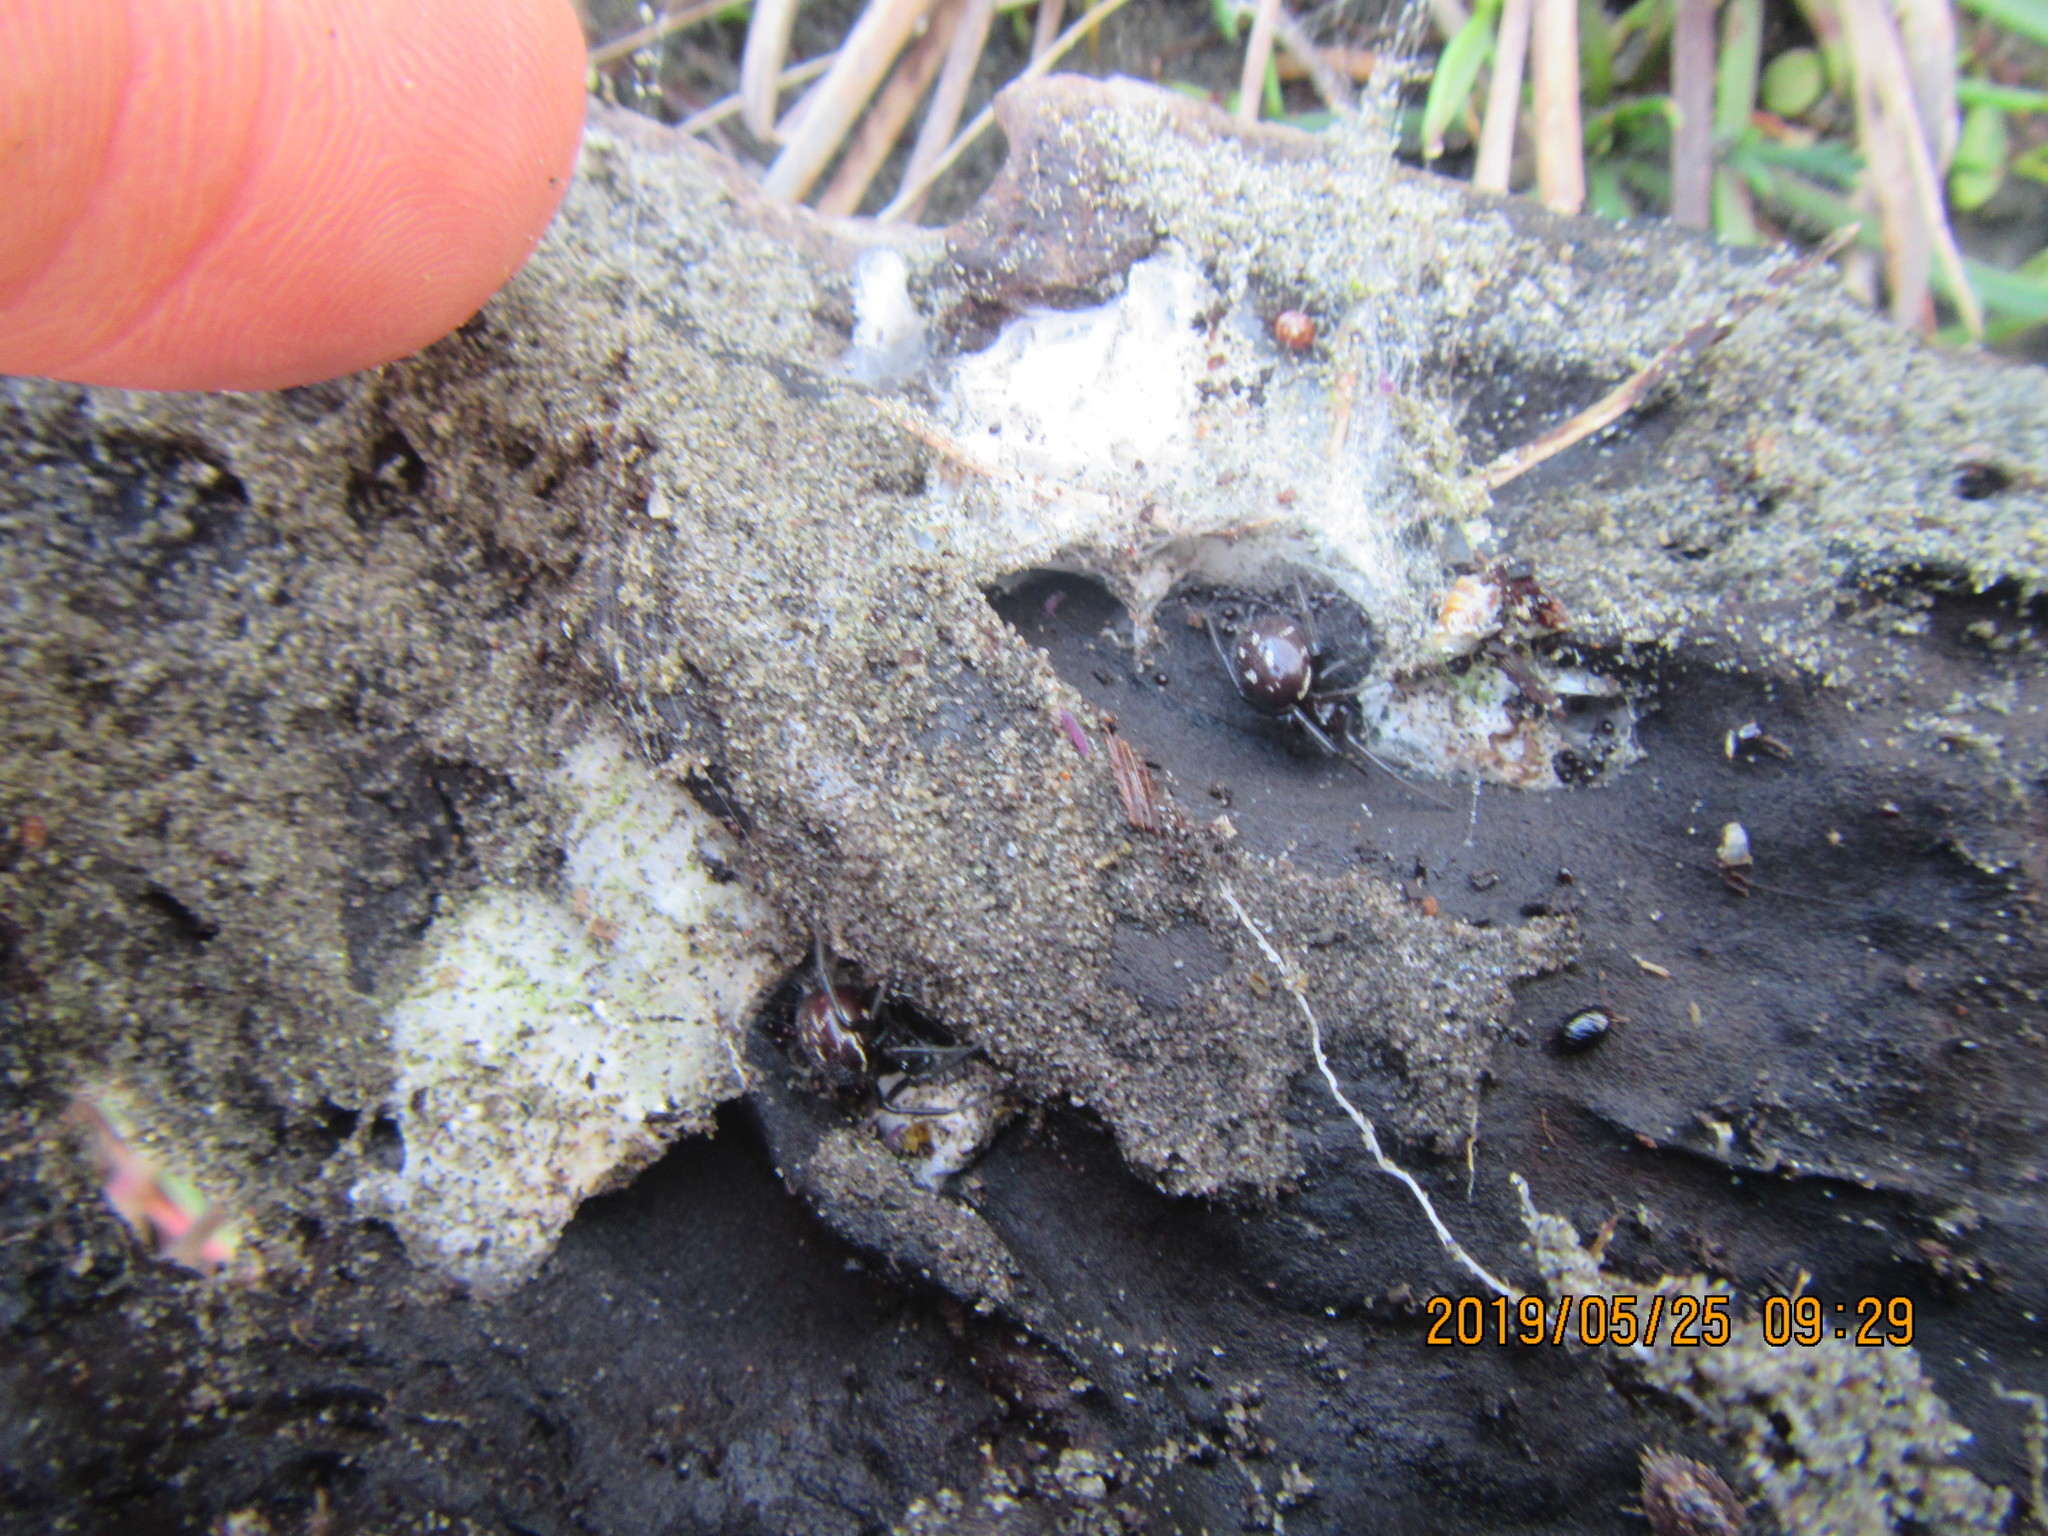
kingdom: Animalia
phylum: Arthropoda
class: Arachnida
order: Araneae
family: Theridiidae
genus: Steatoda
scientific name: Steatoda capensis
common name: Cobweb weaver
